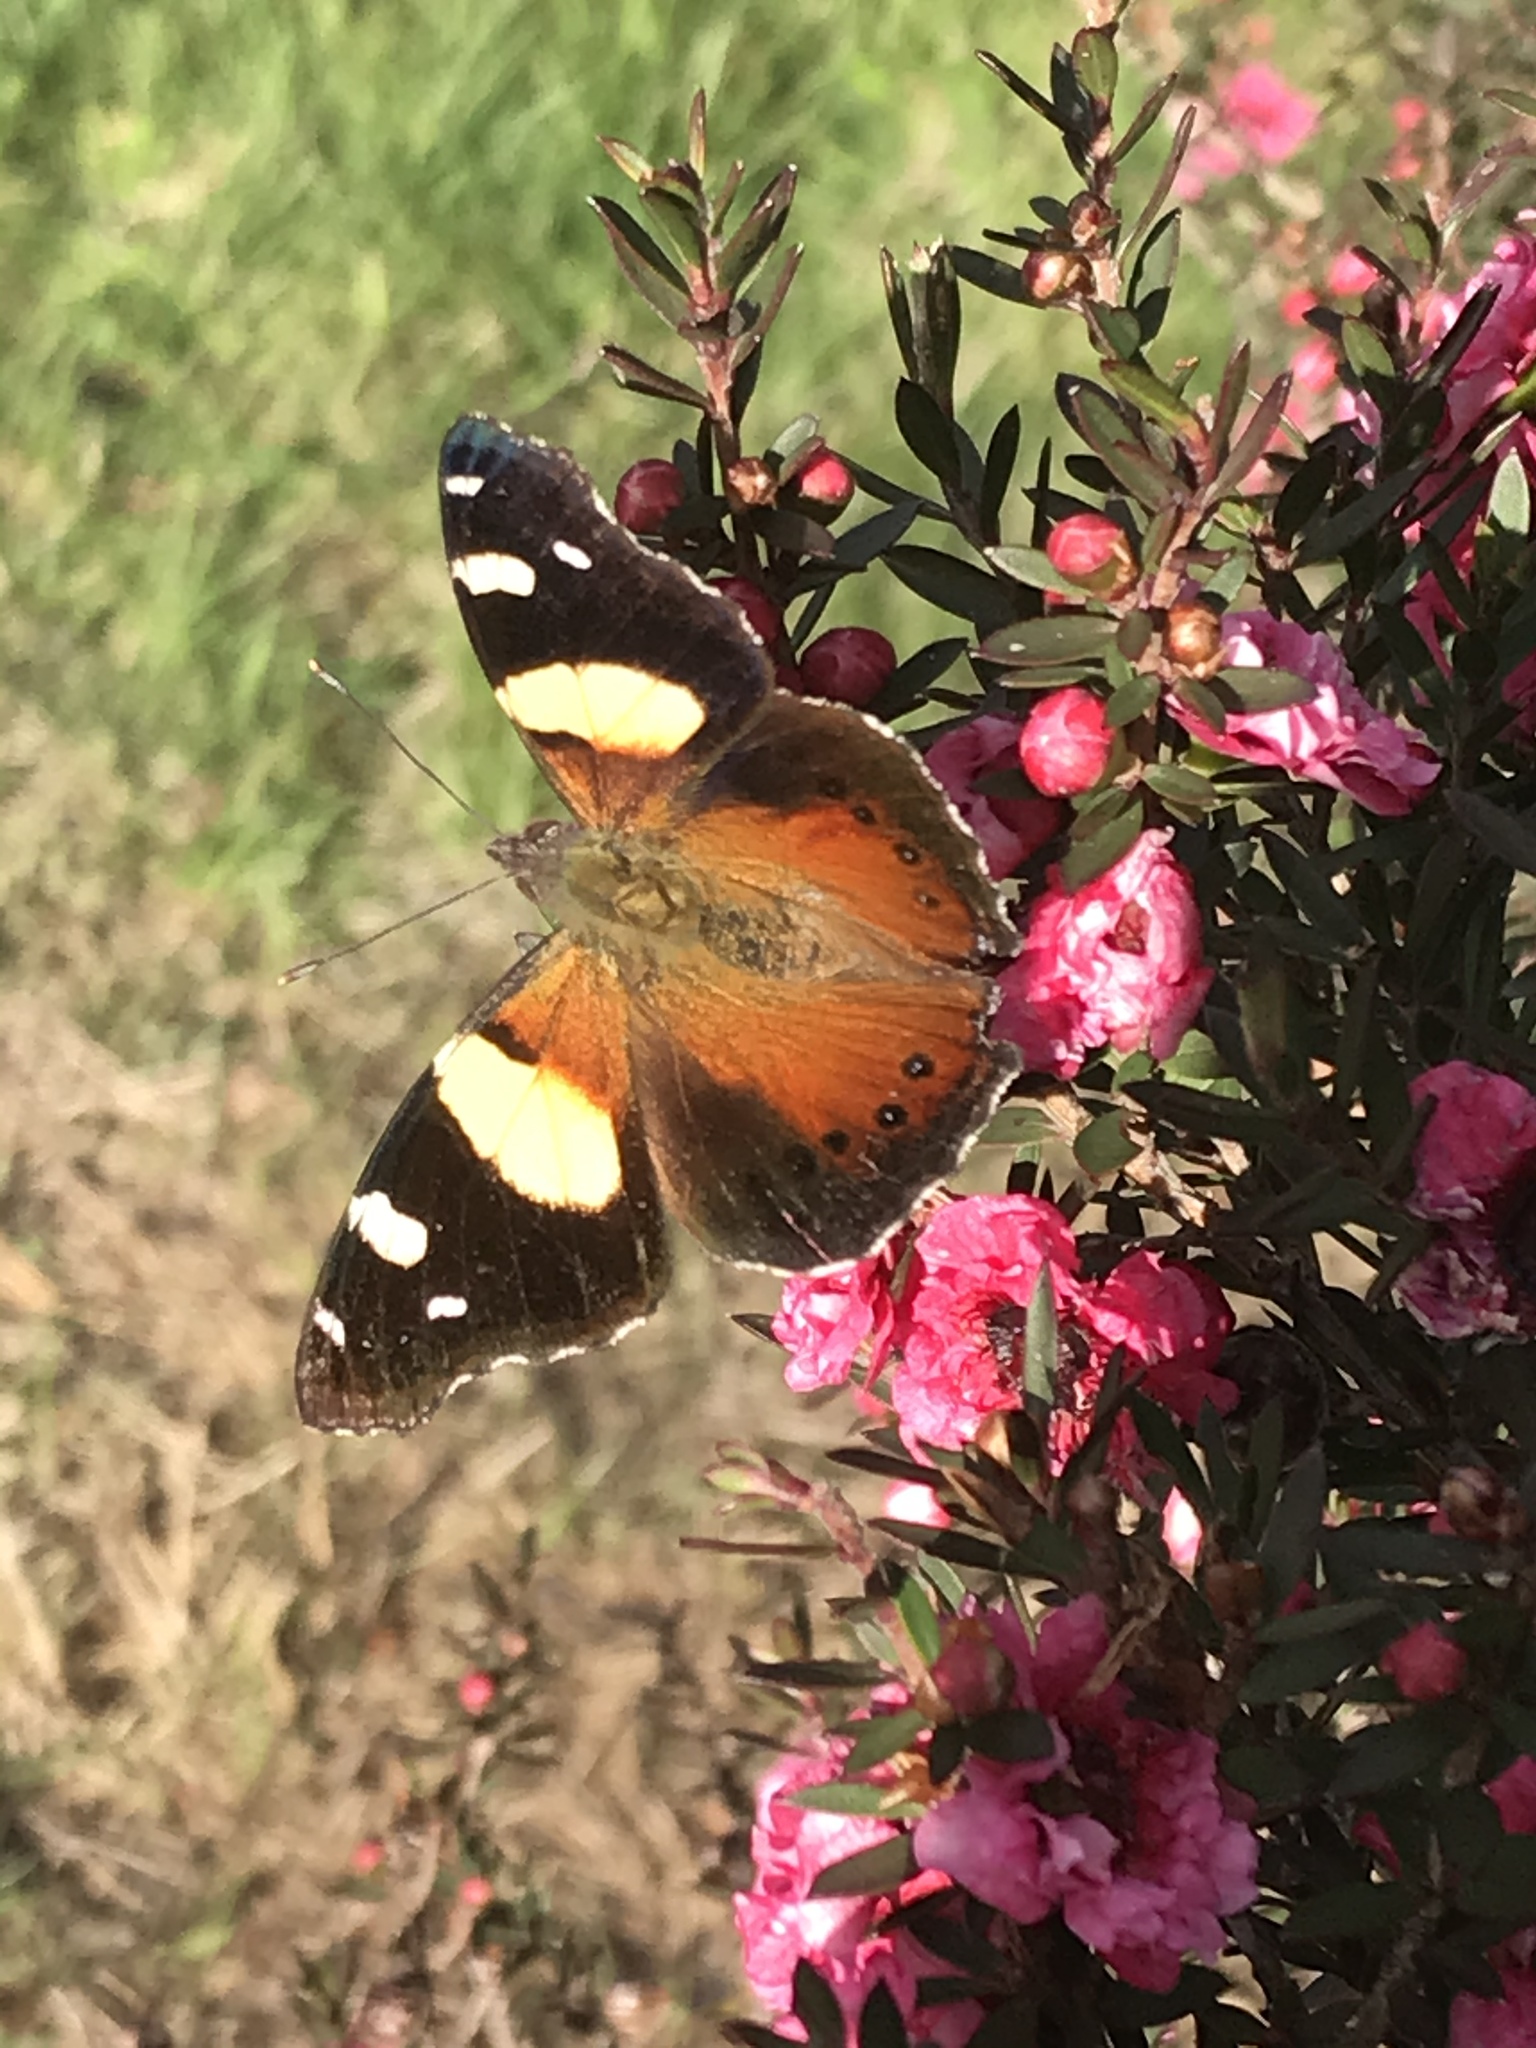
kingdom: Animalia
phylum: Arthropoda
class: Insecta
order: Lepidoptera
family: Nymphalidae
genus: Vanessa
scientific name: Vanessa itea
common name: Yellow admiral
